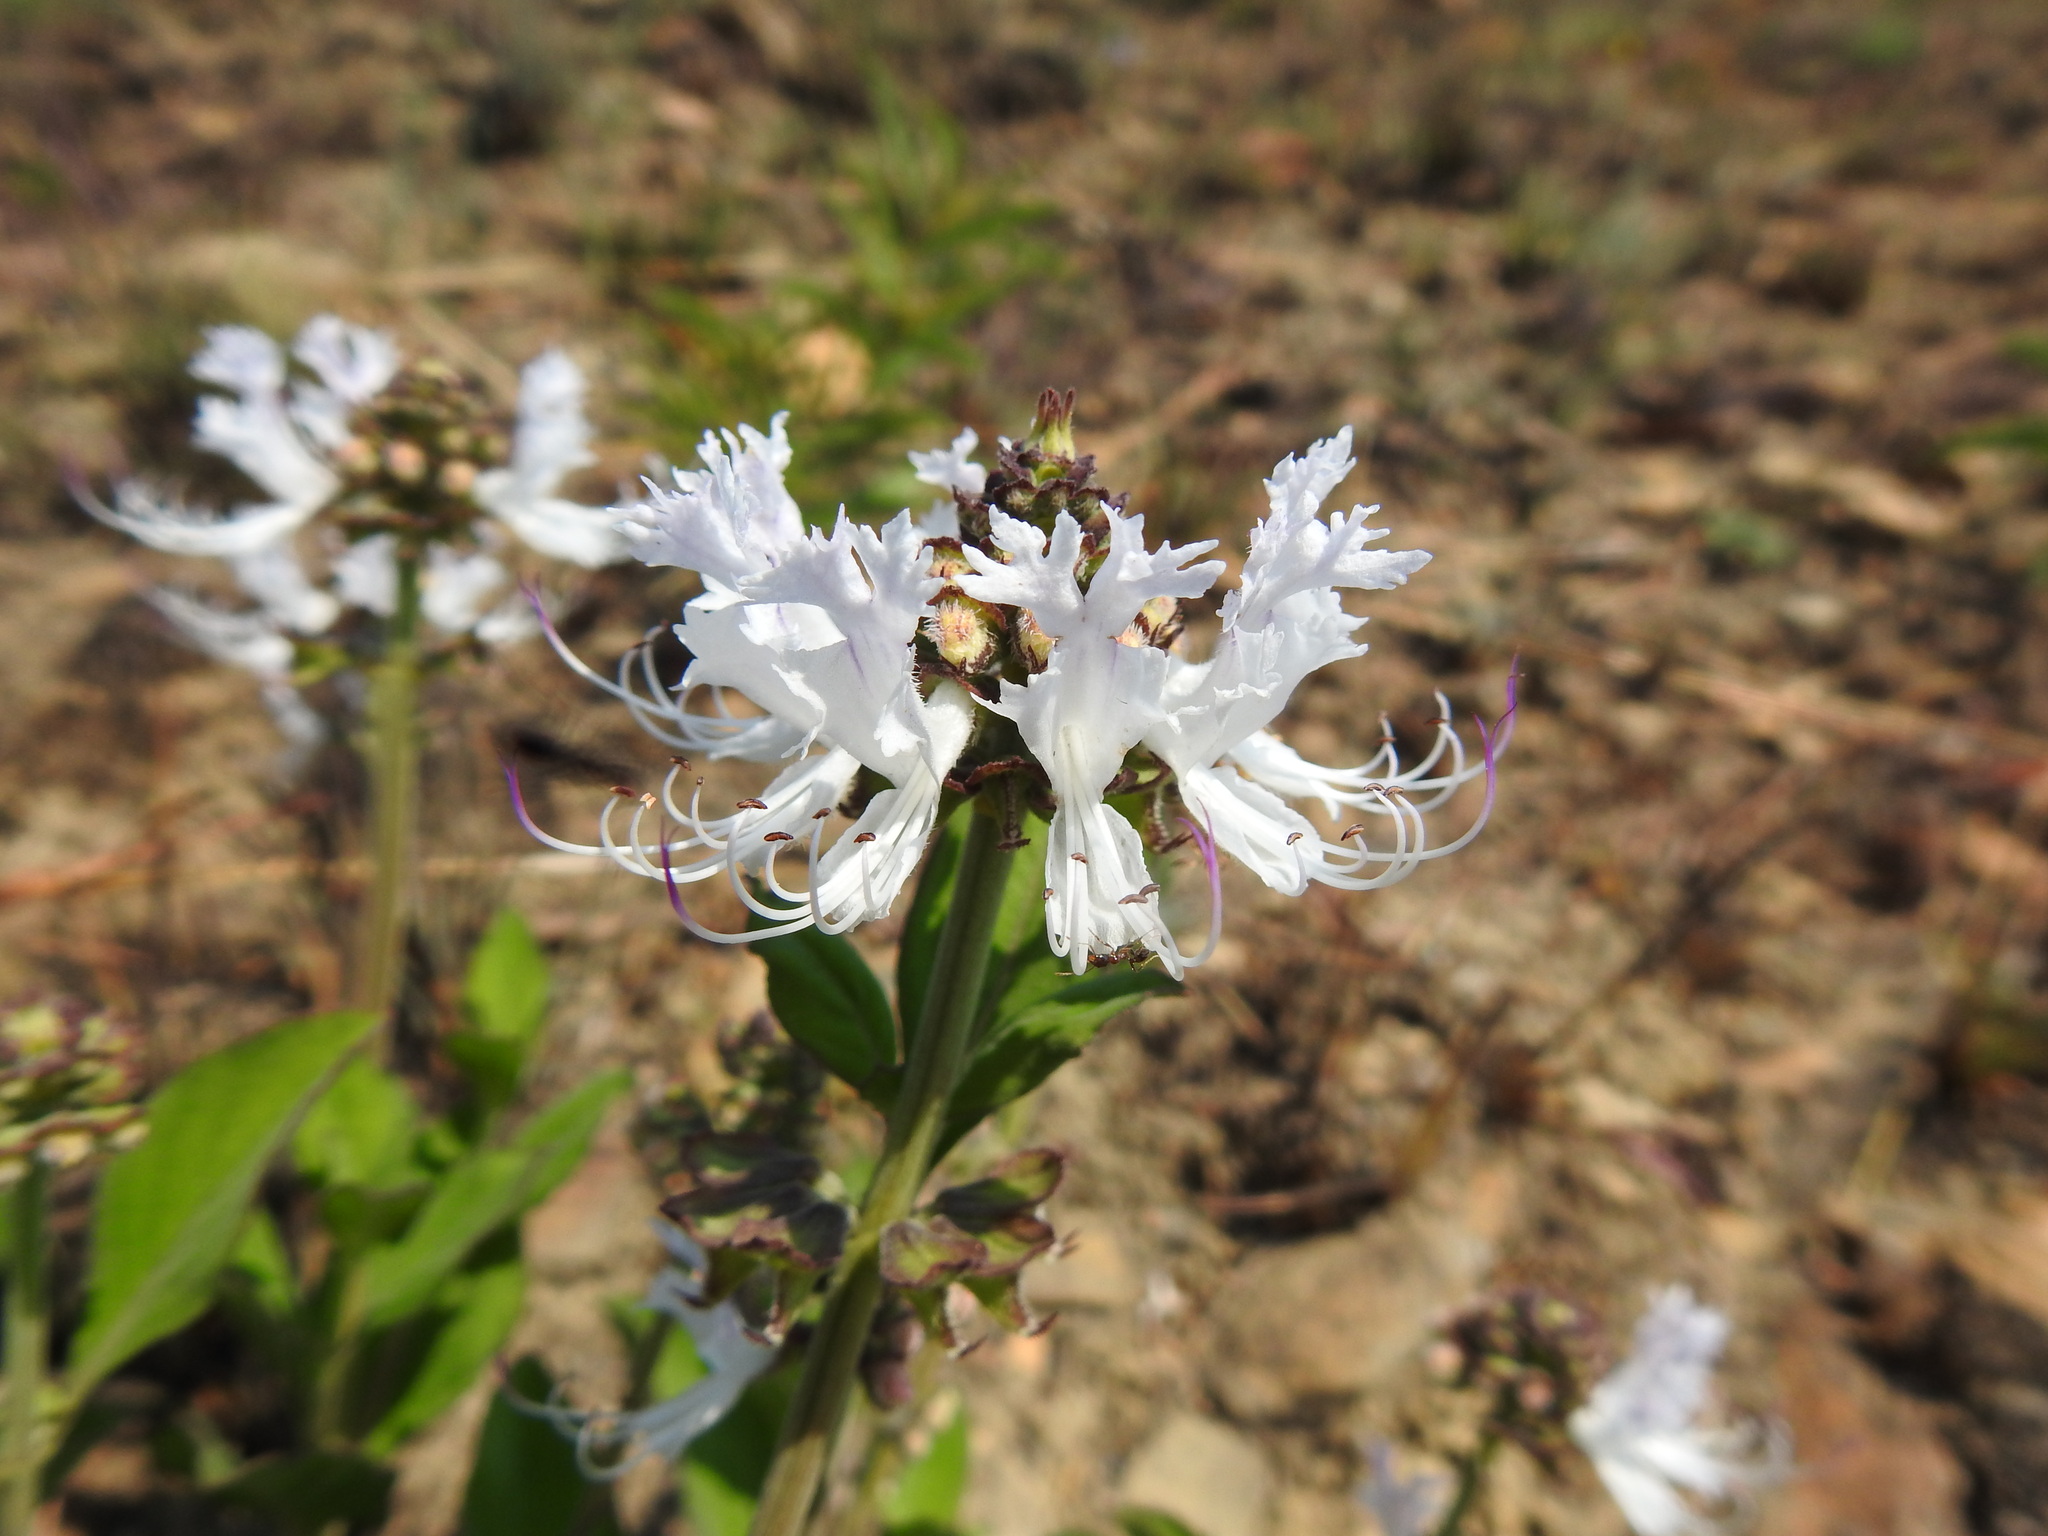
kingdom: Plantae
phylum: Tracheophyta
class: Magnoliopsida
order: Lamiales
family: Lamiaceae
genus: Ocimum
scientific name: Ocimum obovatum
